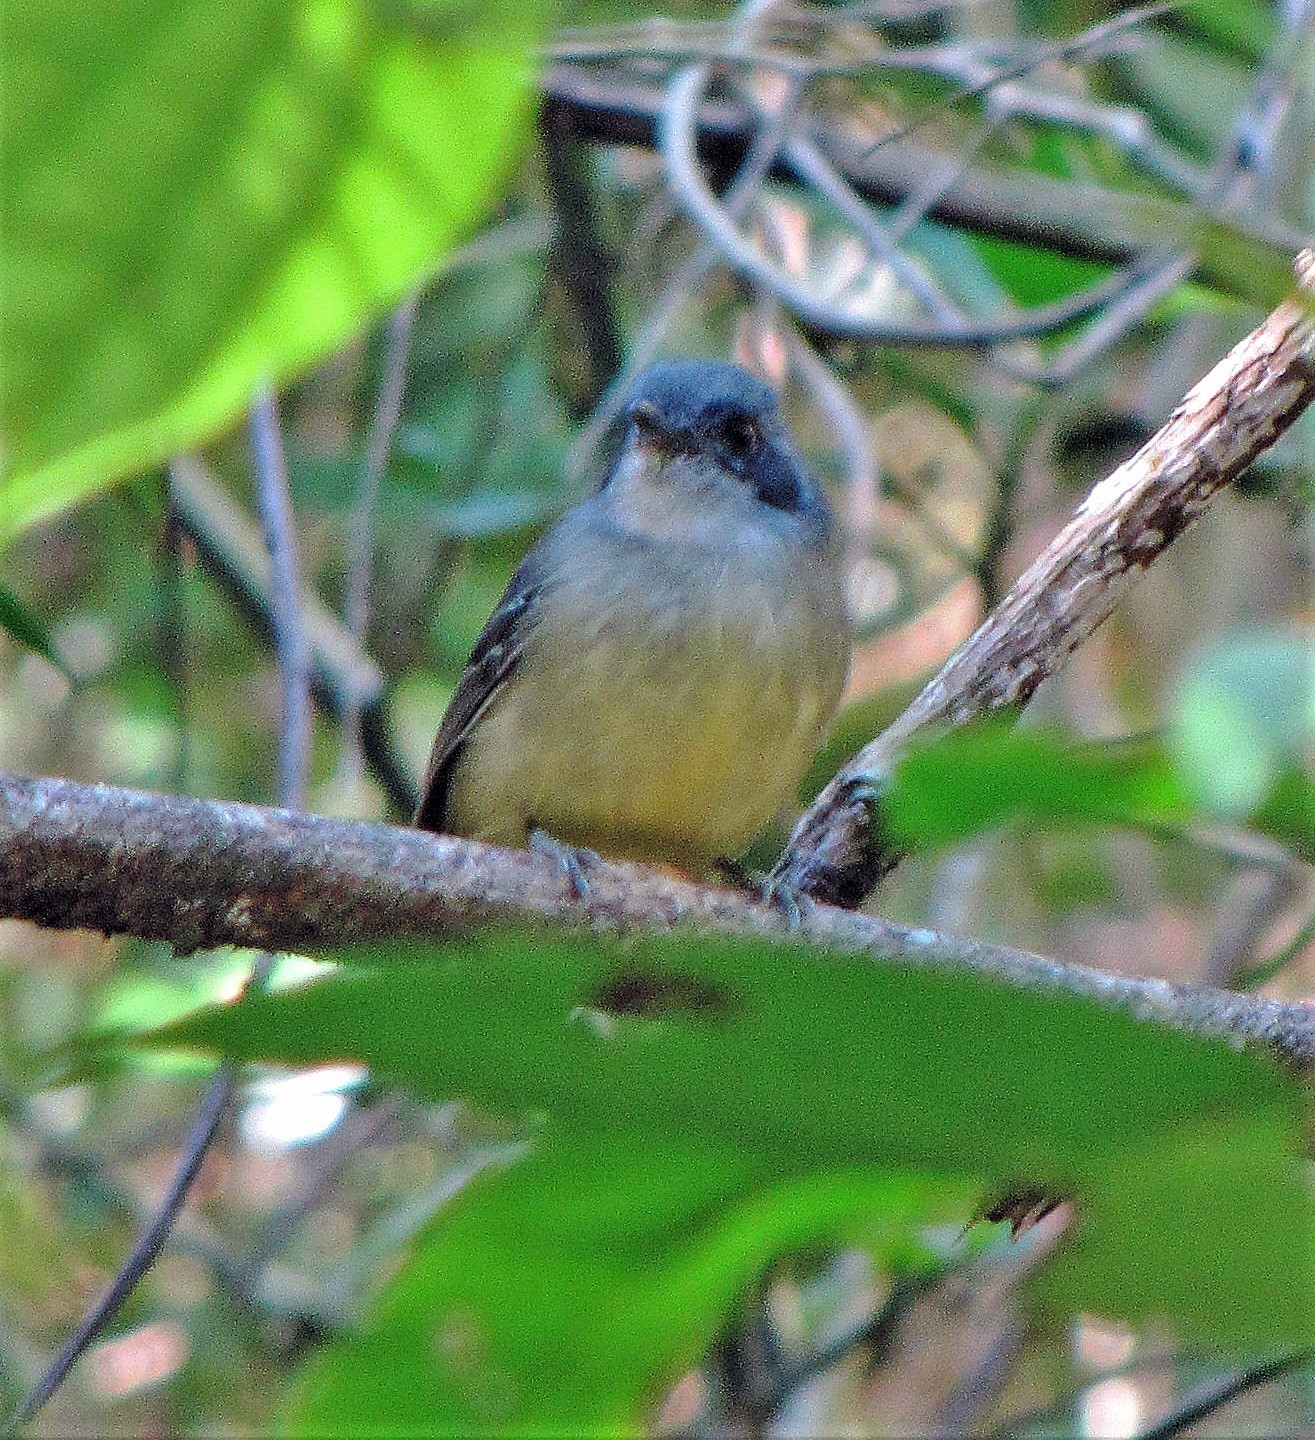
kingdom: Animalia
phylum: Chordata
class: Aves
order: Passeriformes
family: Thamnophilidae
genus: Dysithamnus
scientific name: Dysithamnus mentalis
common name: Plain antvireo
